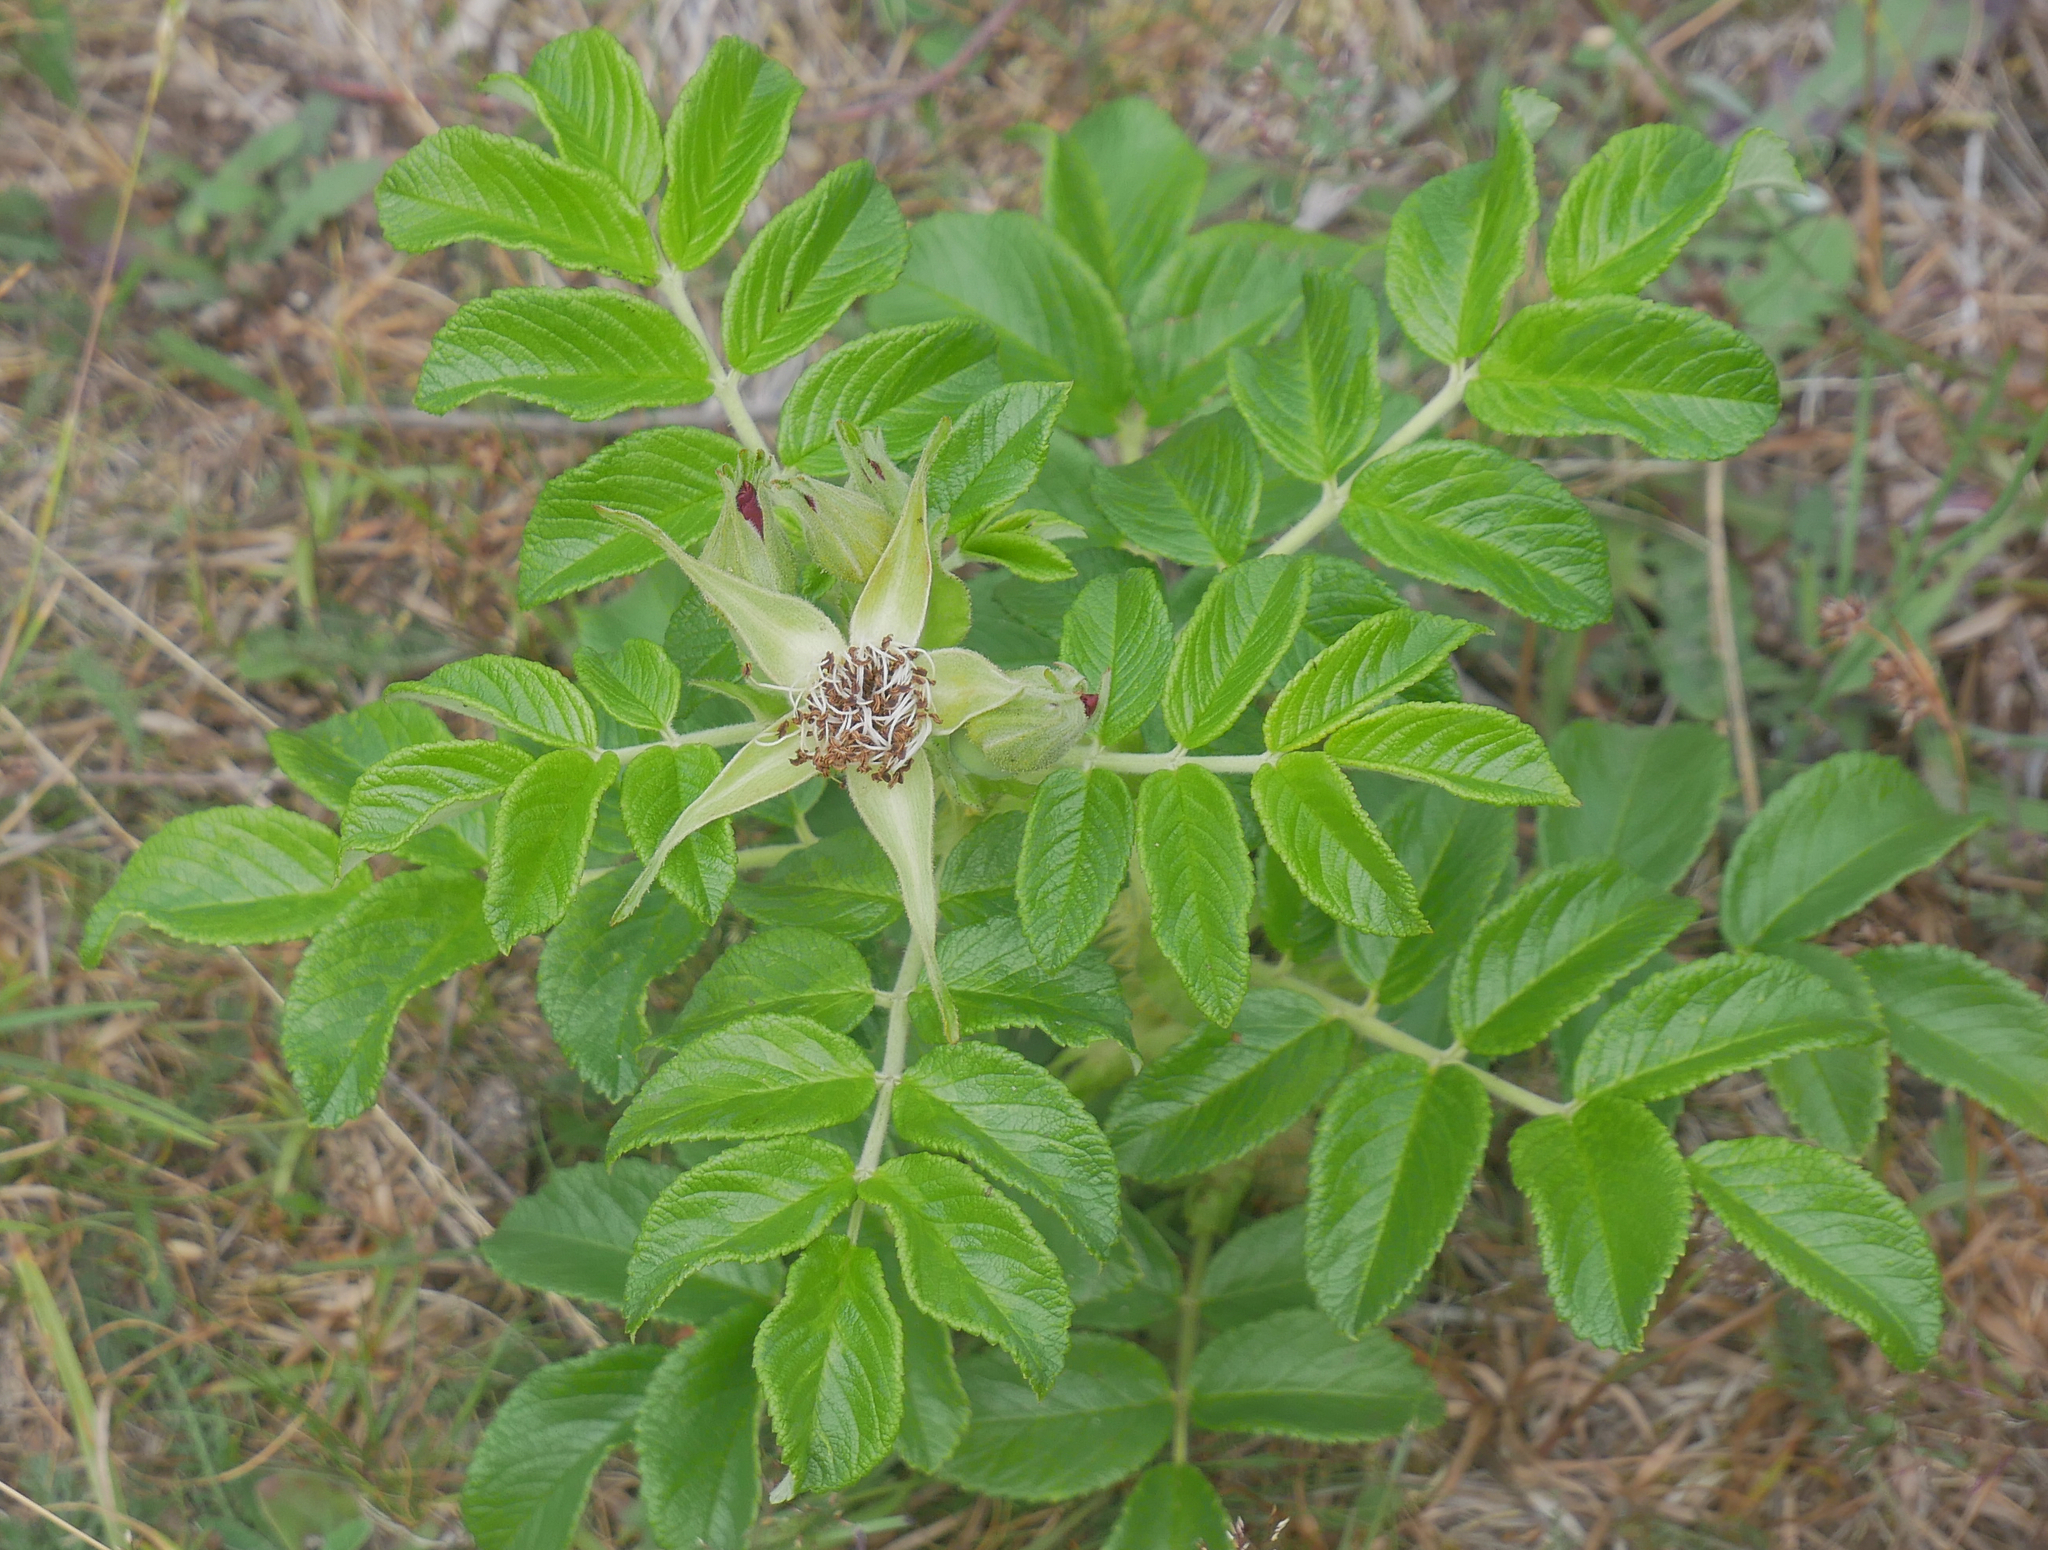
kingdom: Plantae
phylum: Tracheophyta
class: Magnoliopsida
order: Rosales
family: Rosaceae
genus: Rosa
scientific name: Rosa rugosa
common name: Japanese rose
